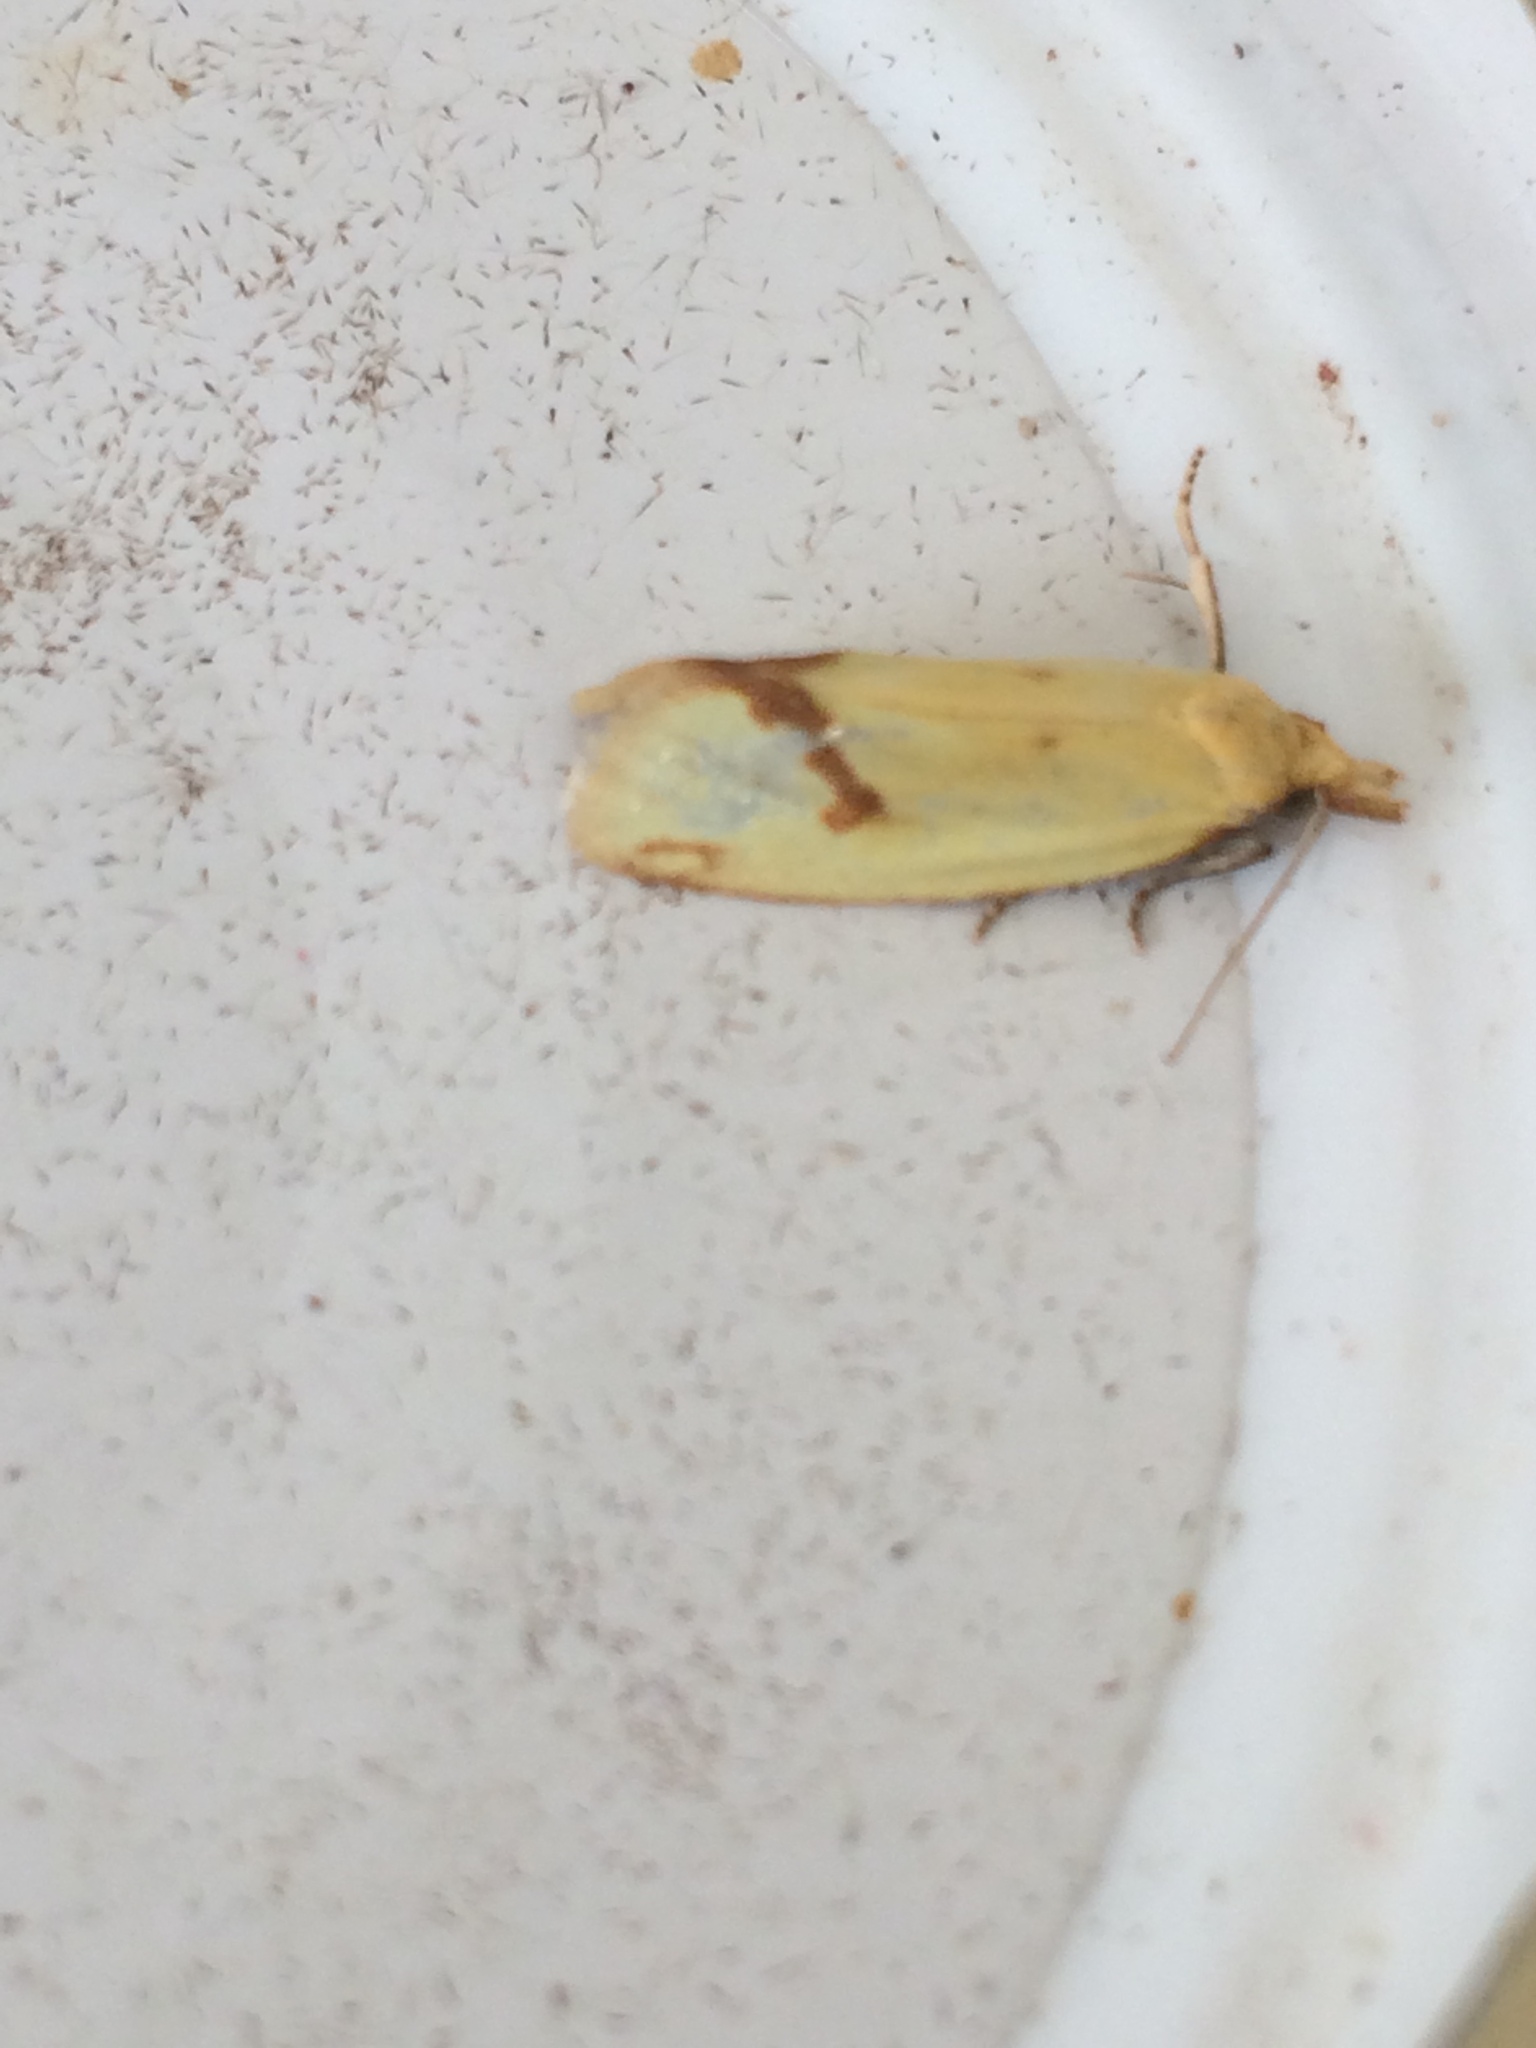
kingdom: Animalia
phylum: Arthropoda
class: Insecta
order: Lepidoptera
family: Tortricidae
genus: Agapeta
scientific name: Agapeta hamana
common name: Common yellow conch
